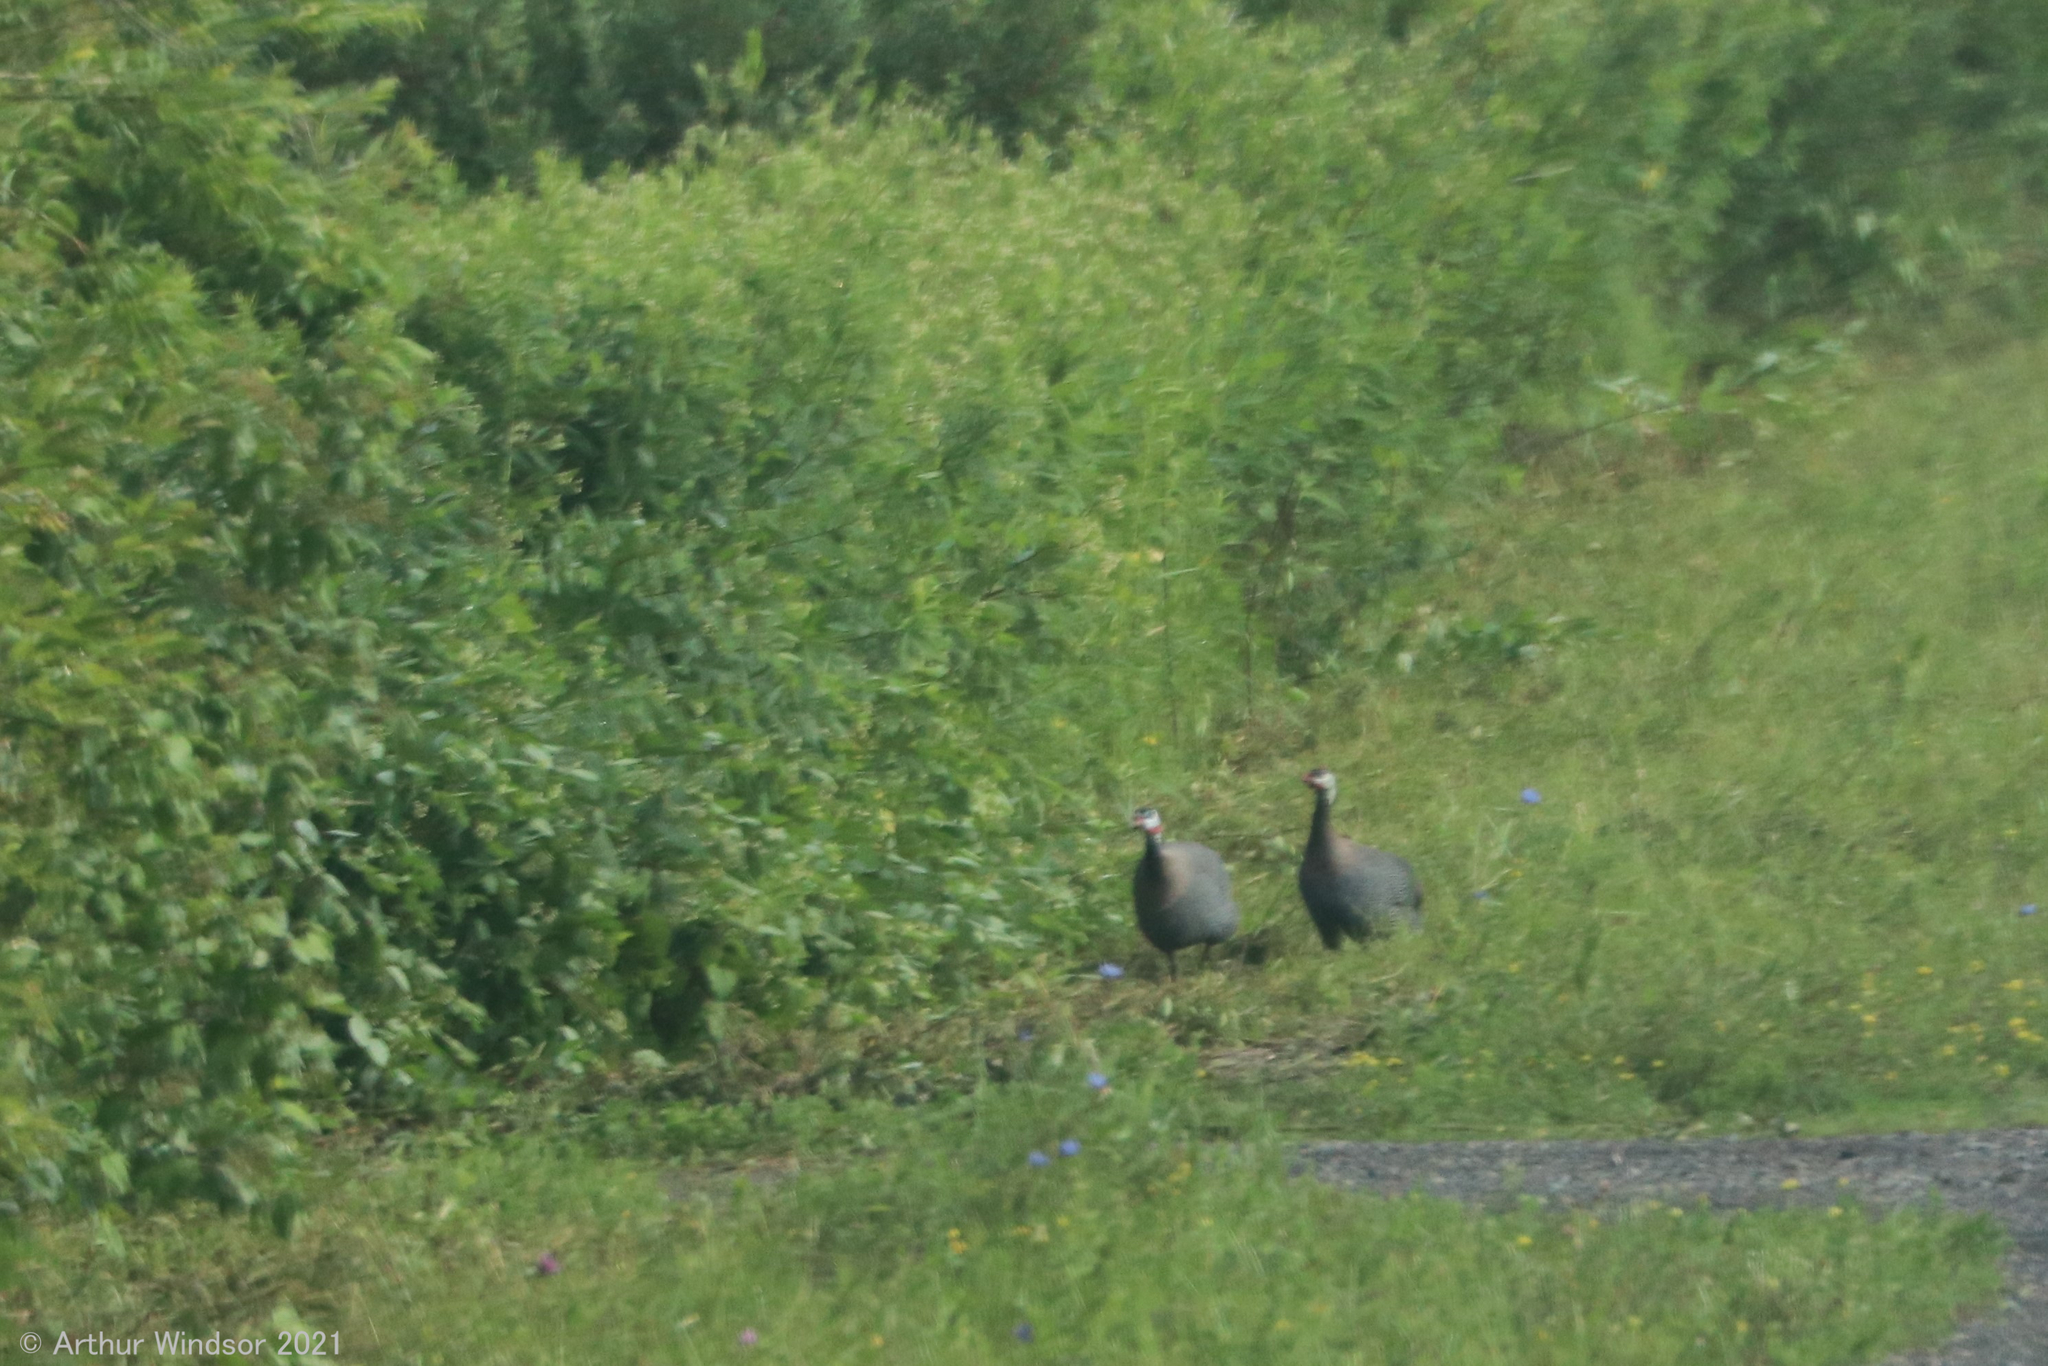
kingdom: Animalia
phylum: Chordata
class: Aves
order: Galliformes
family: Numididae
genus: Numida
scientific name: Numida meleagris
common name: Helmeted guineafowl
